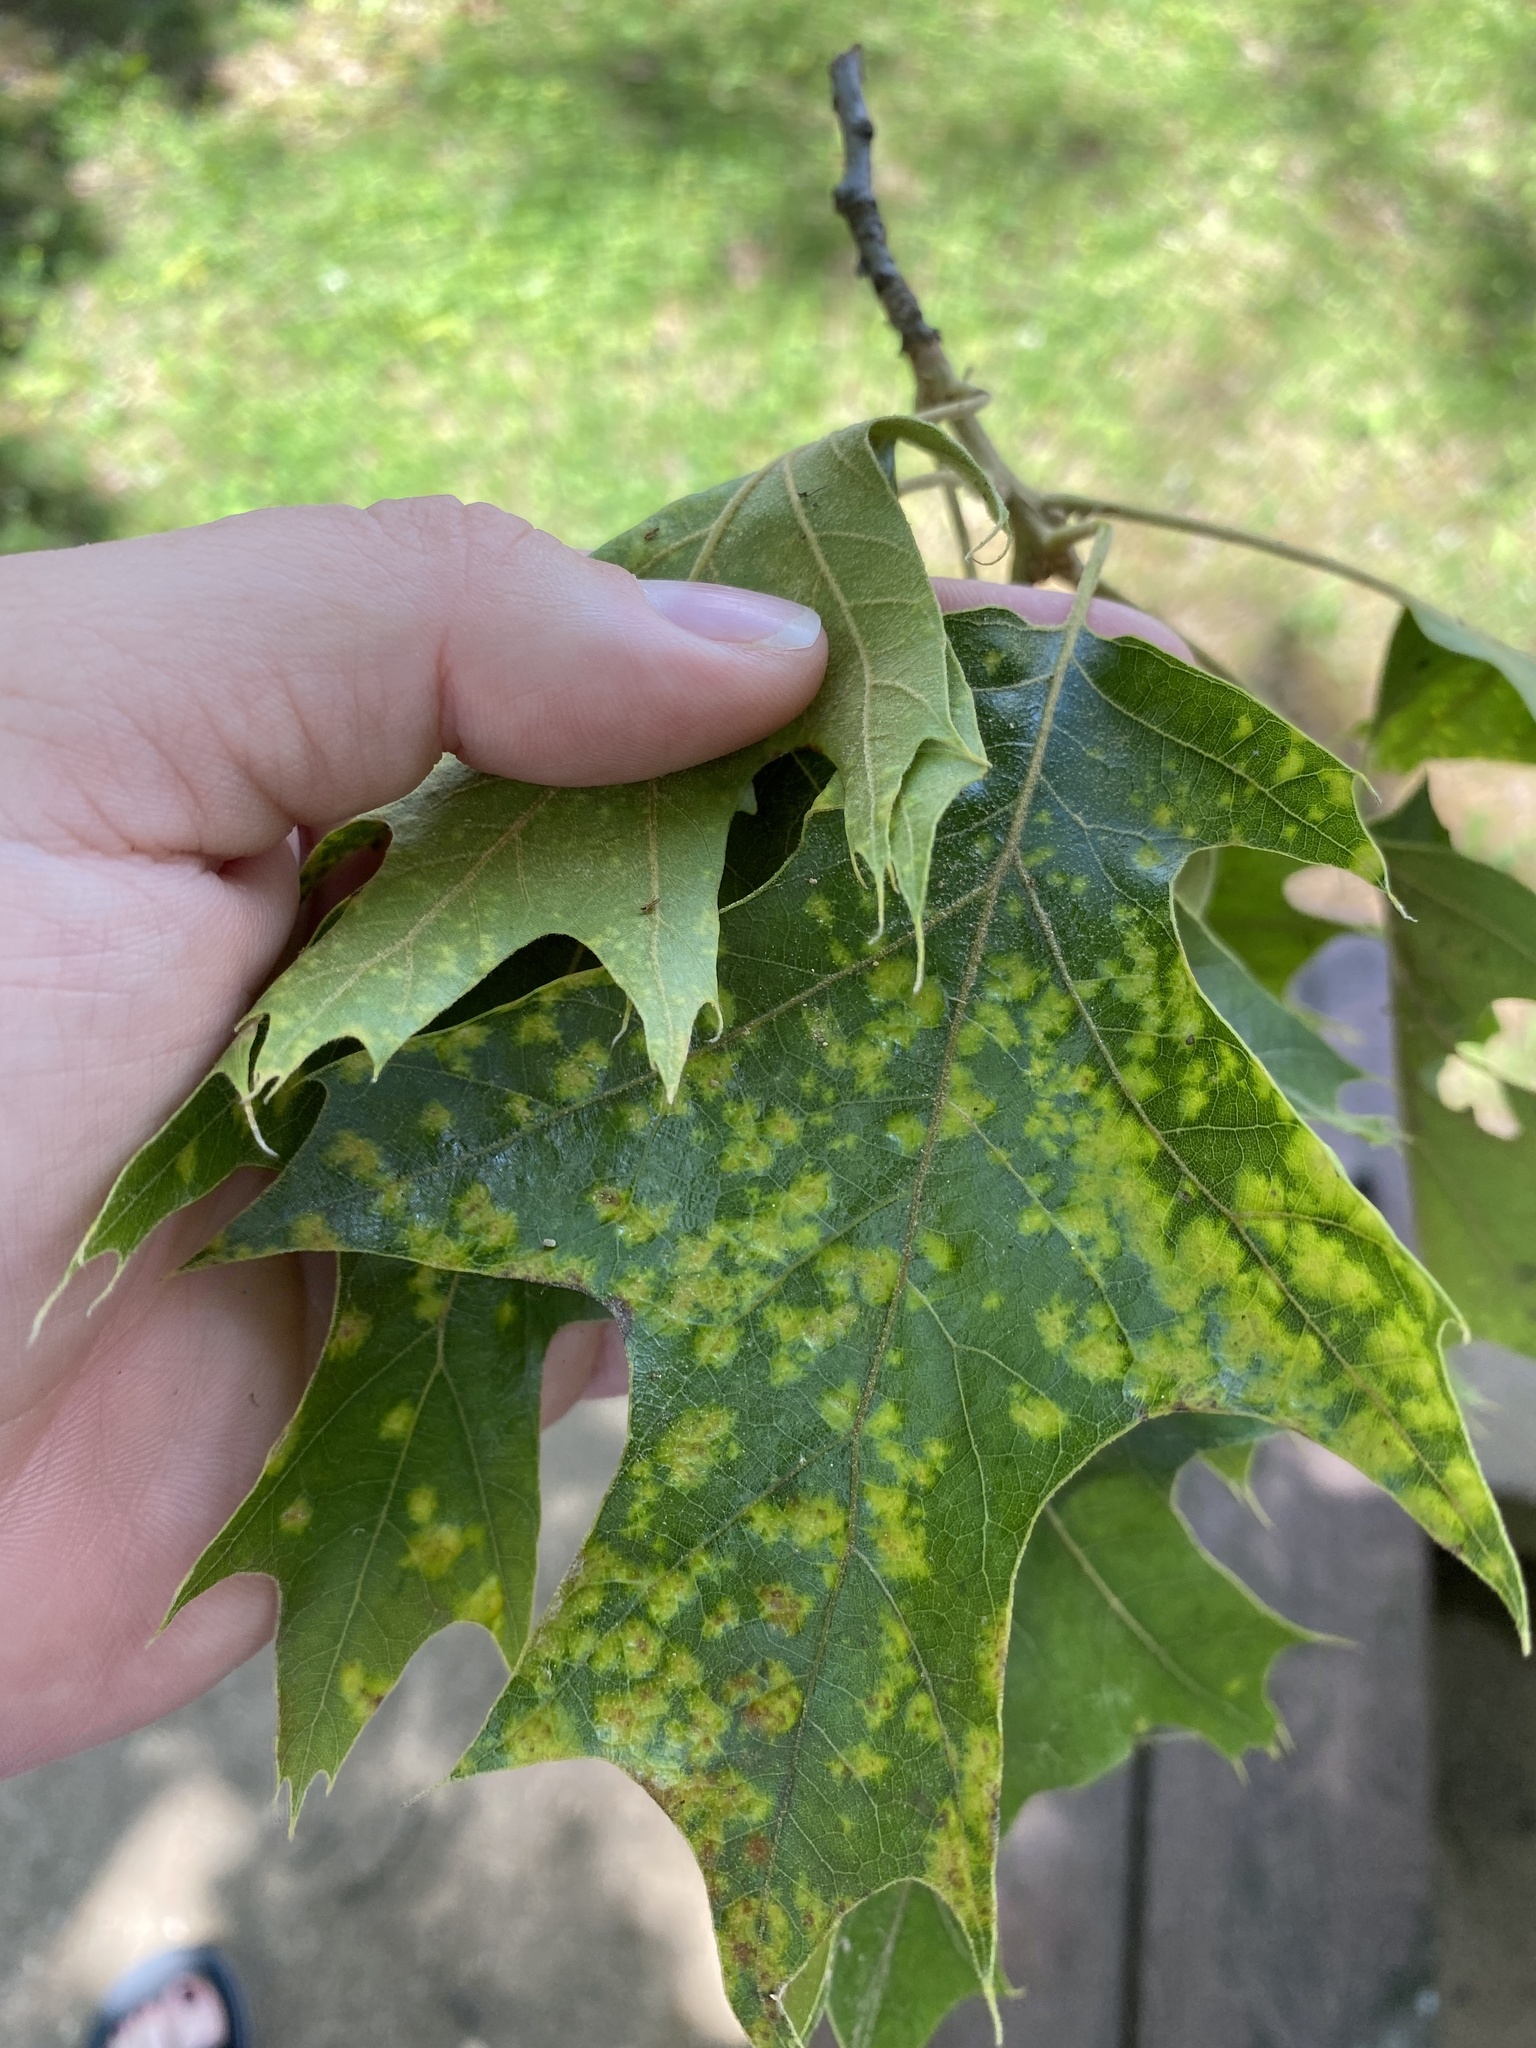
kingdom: Plantae
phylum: Tracheophyta
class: Magnoliopsida
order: Fagales
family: Fagaceae
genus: Quercus
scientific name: Quercus velutina
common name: Black oak
